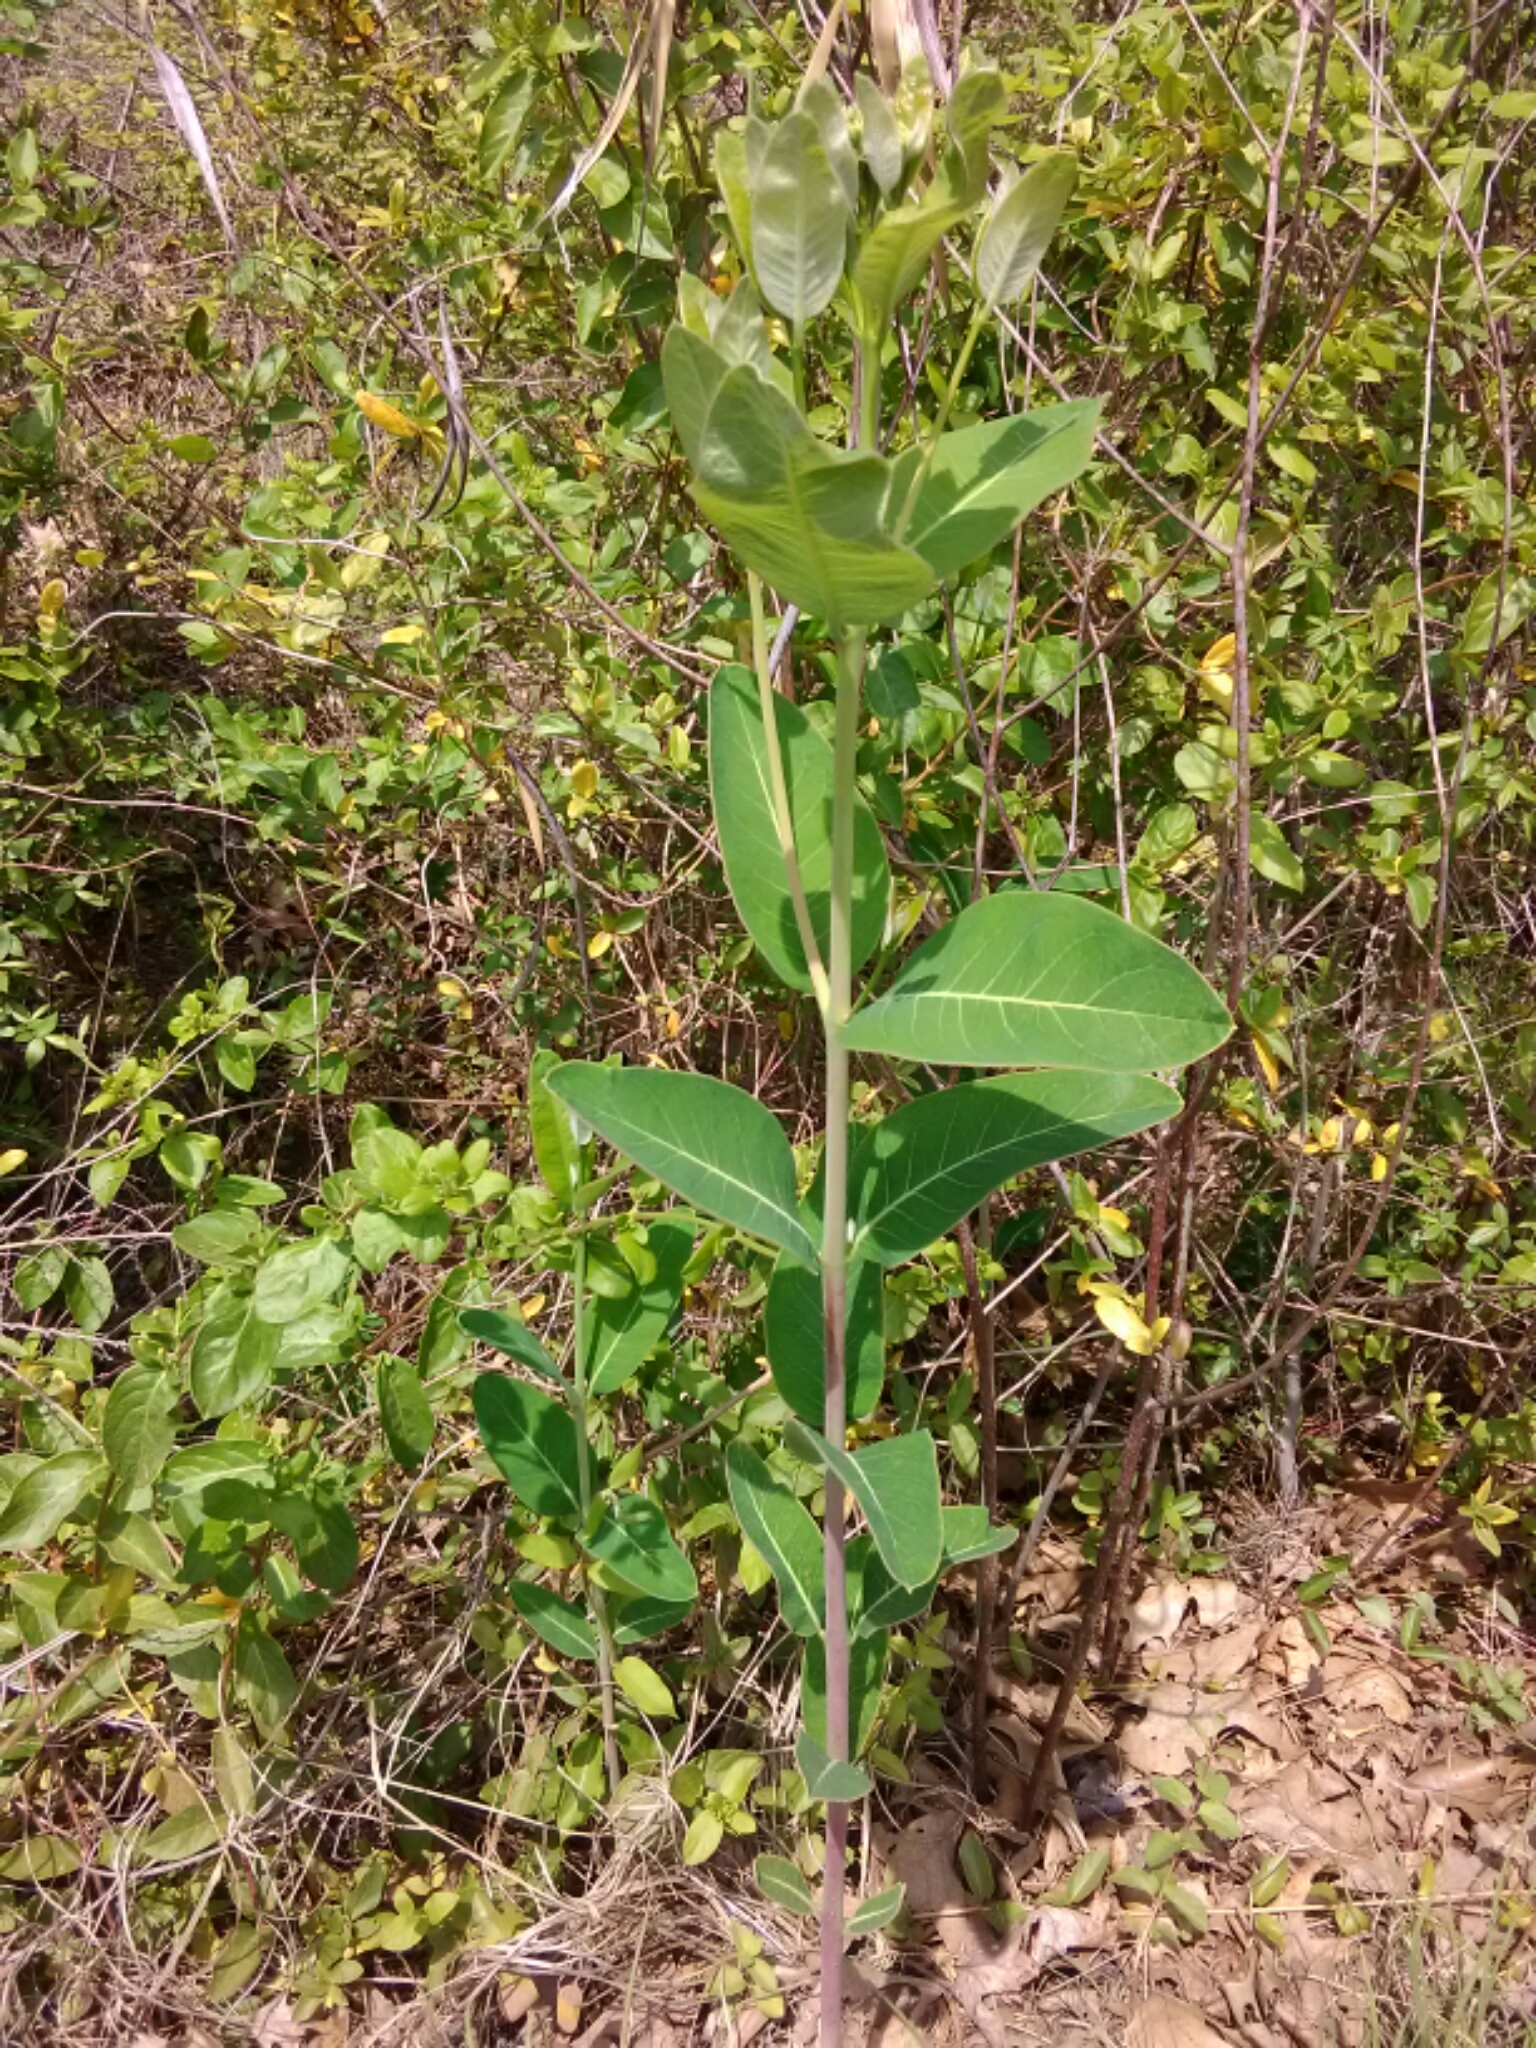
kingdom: Plantae
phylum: Tracheophyta
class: Magnoliopsida
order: Gentianales
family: Apocynaceae
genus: Apocynum
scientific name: Apocynum cannabinum
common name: Hemp dogbane
